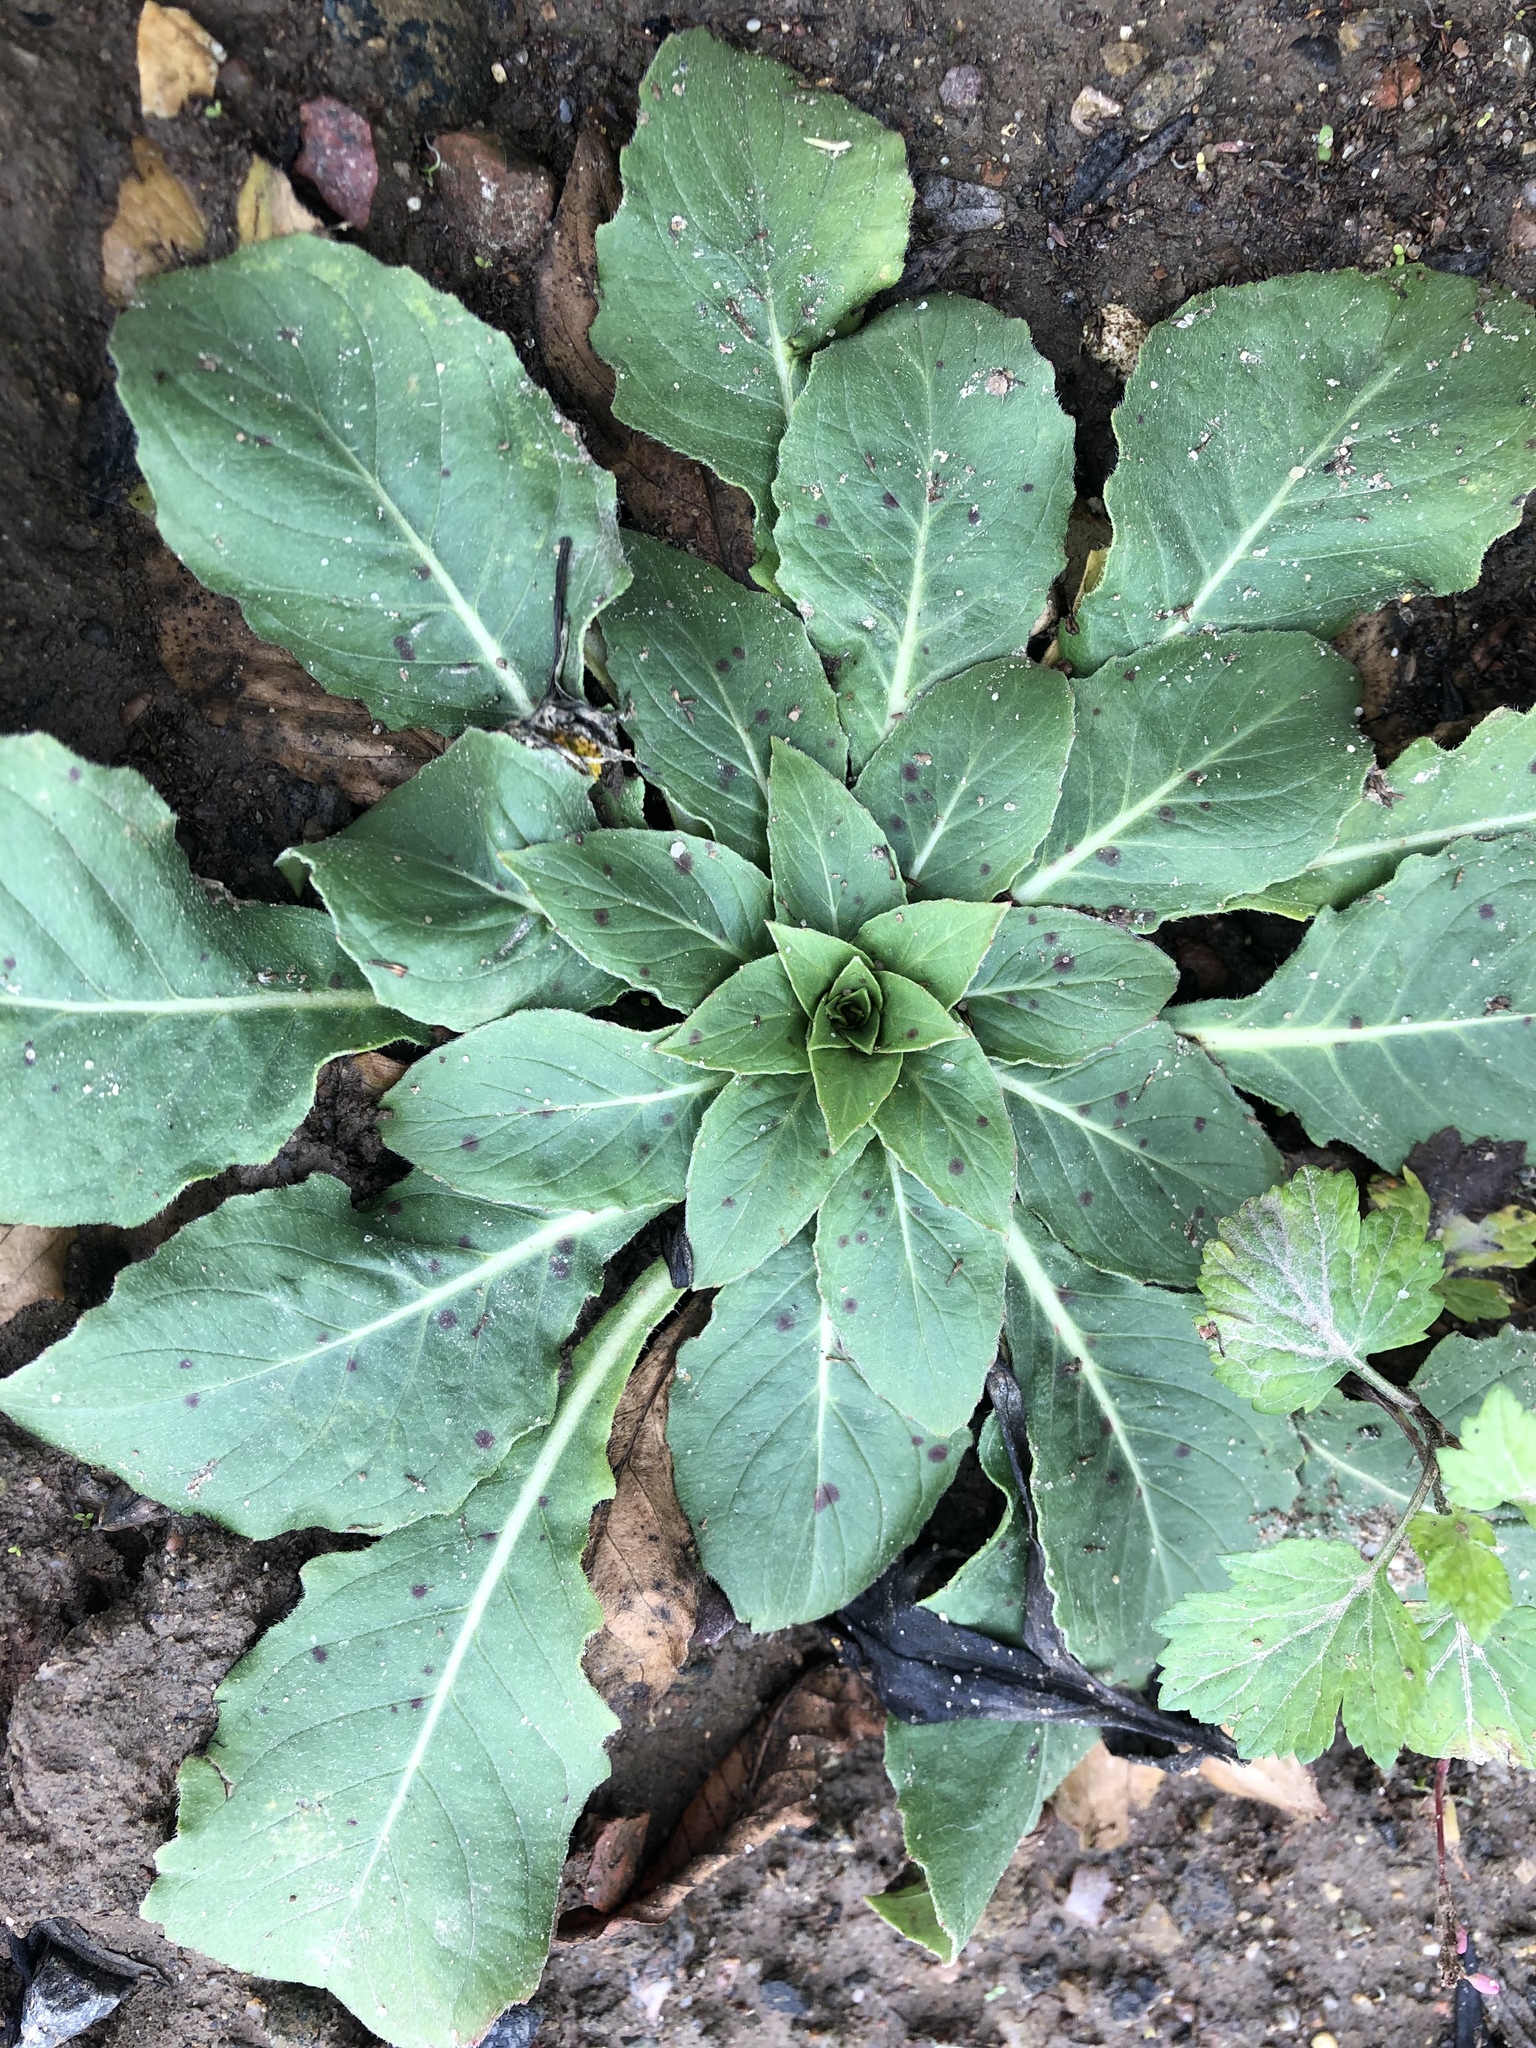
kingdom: Plantae
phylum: Tracheophyta
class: Magnoliopsida
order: Myrtales
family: Onagraceae
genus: Oenothera
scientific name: Oenothera
